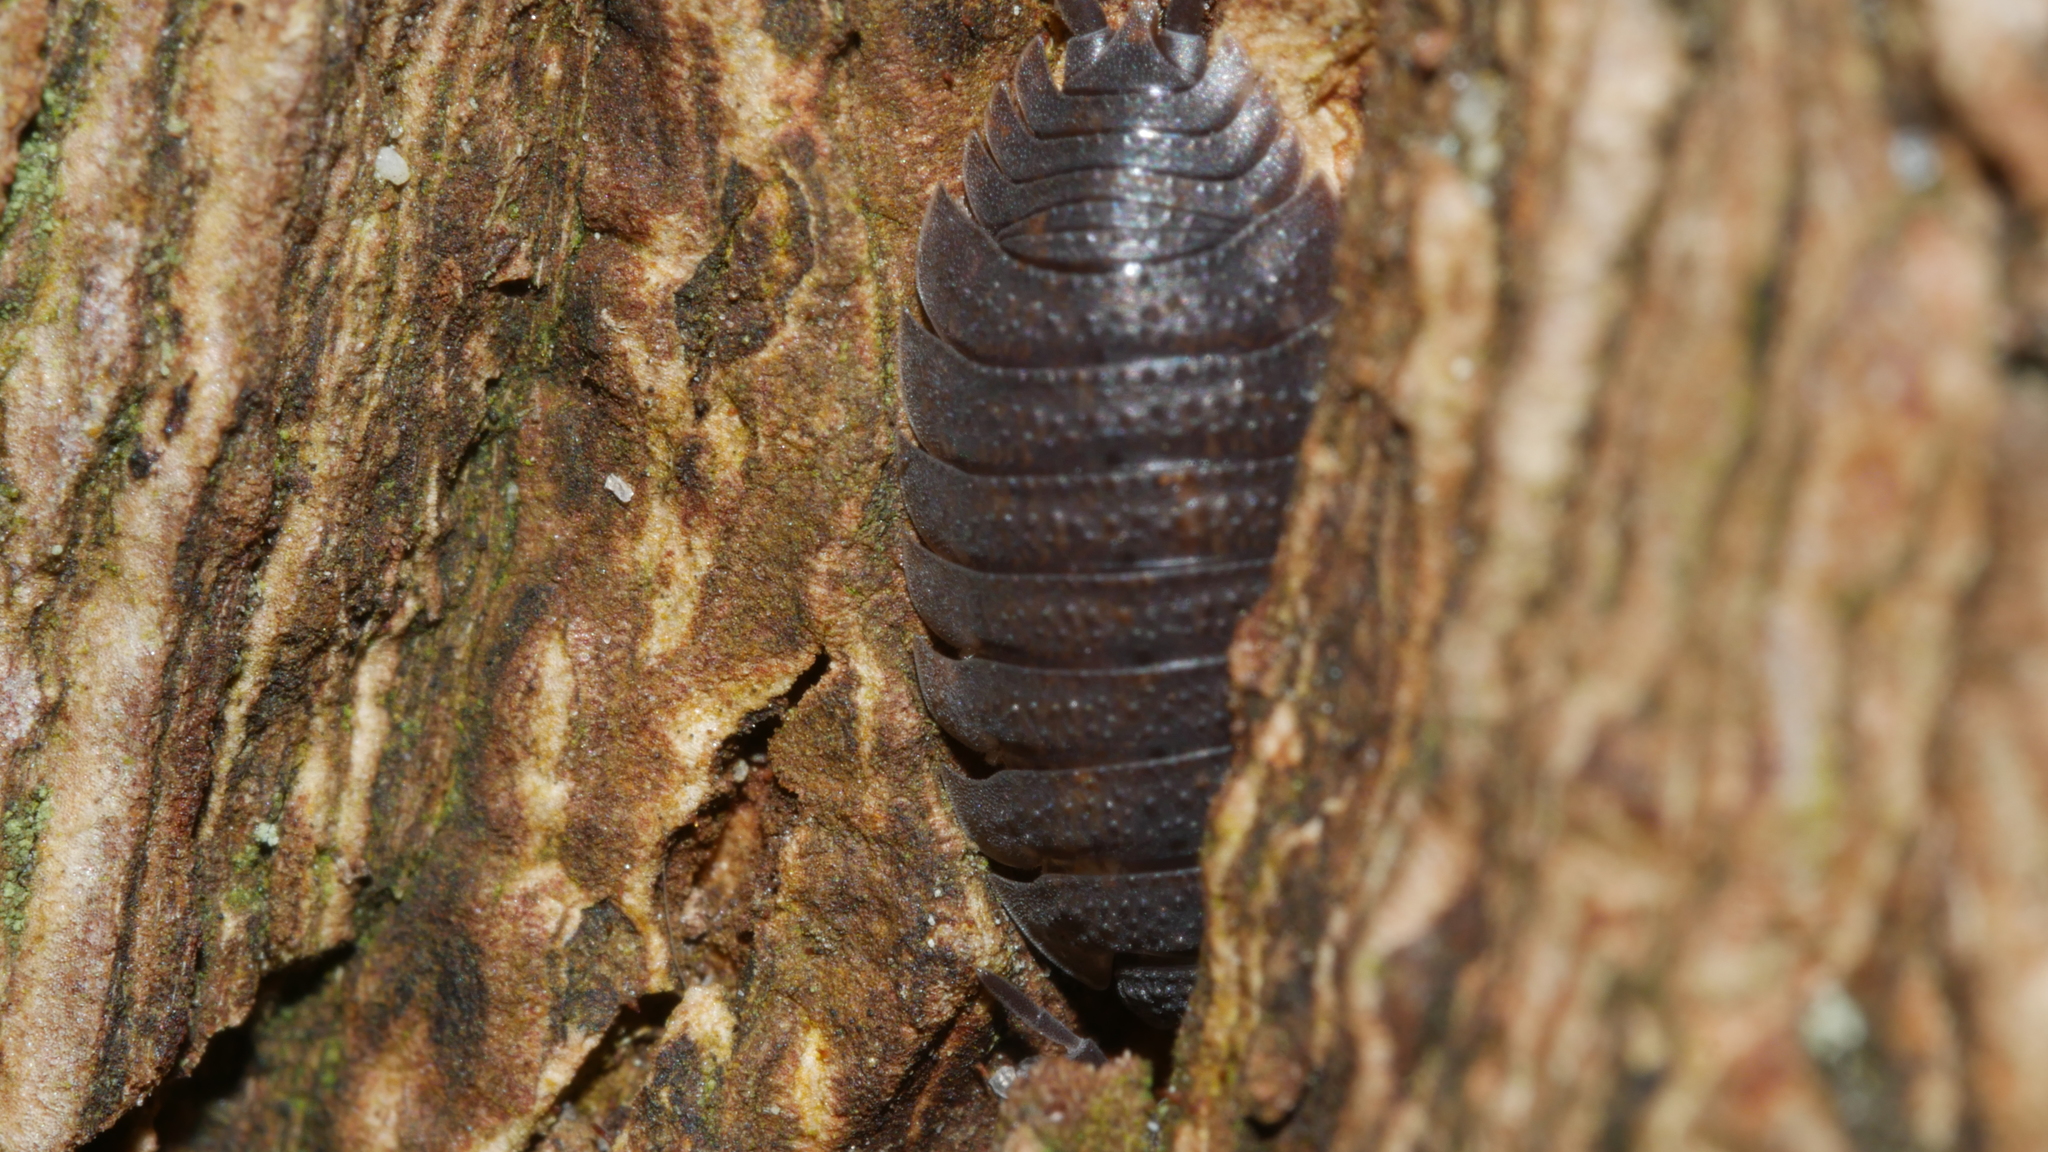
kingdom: Animalia
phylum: Arthropoda
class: Malacostraca
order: Isopoda
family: Porcellionidae
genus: Porcellio
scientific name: Porcellio scaber
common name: Common rough woodlouse
